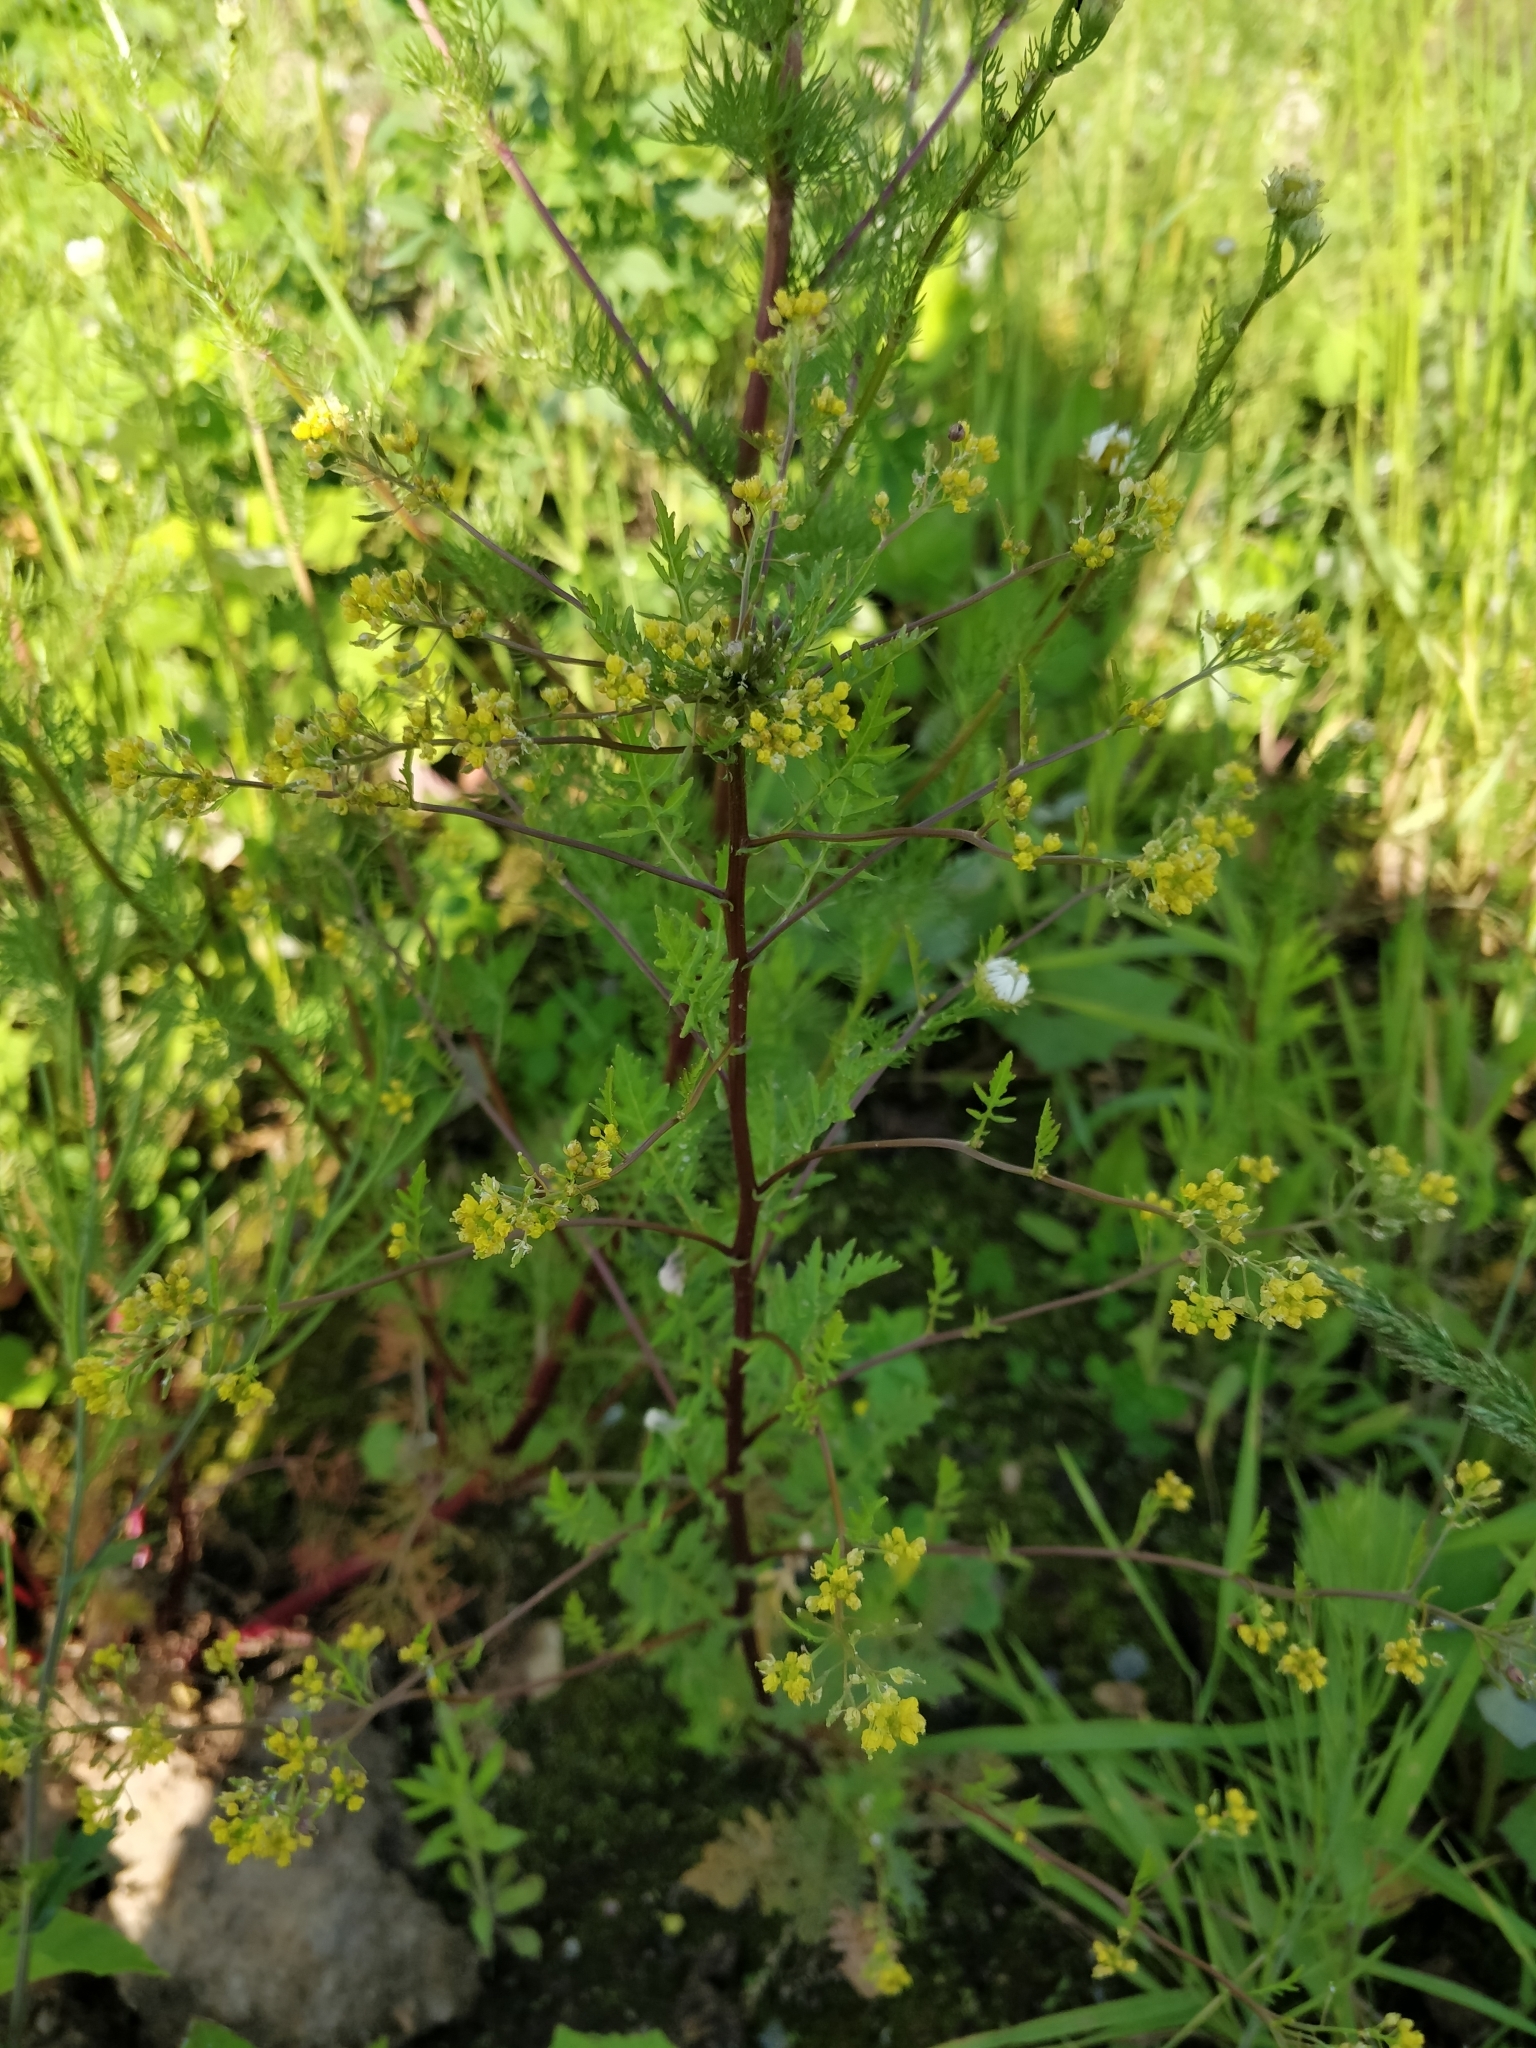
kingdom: Plantae
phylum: Tracheophyta
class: Magnoliopsida
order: Brassicales
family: Brassicaceae
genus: Rorippa
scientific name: Rorippa palustris
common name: Marsh yellow-cress
